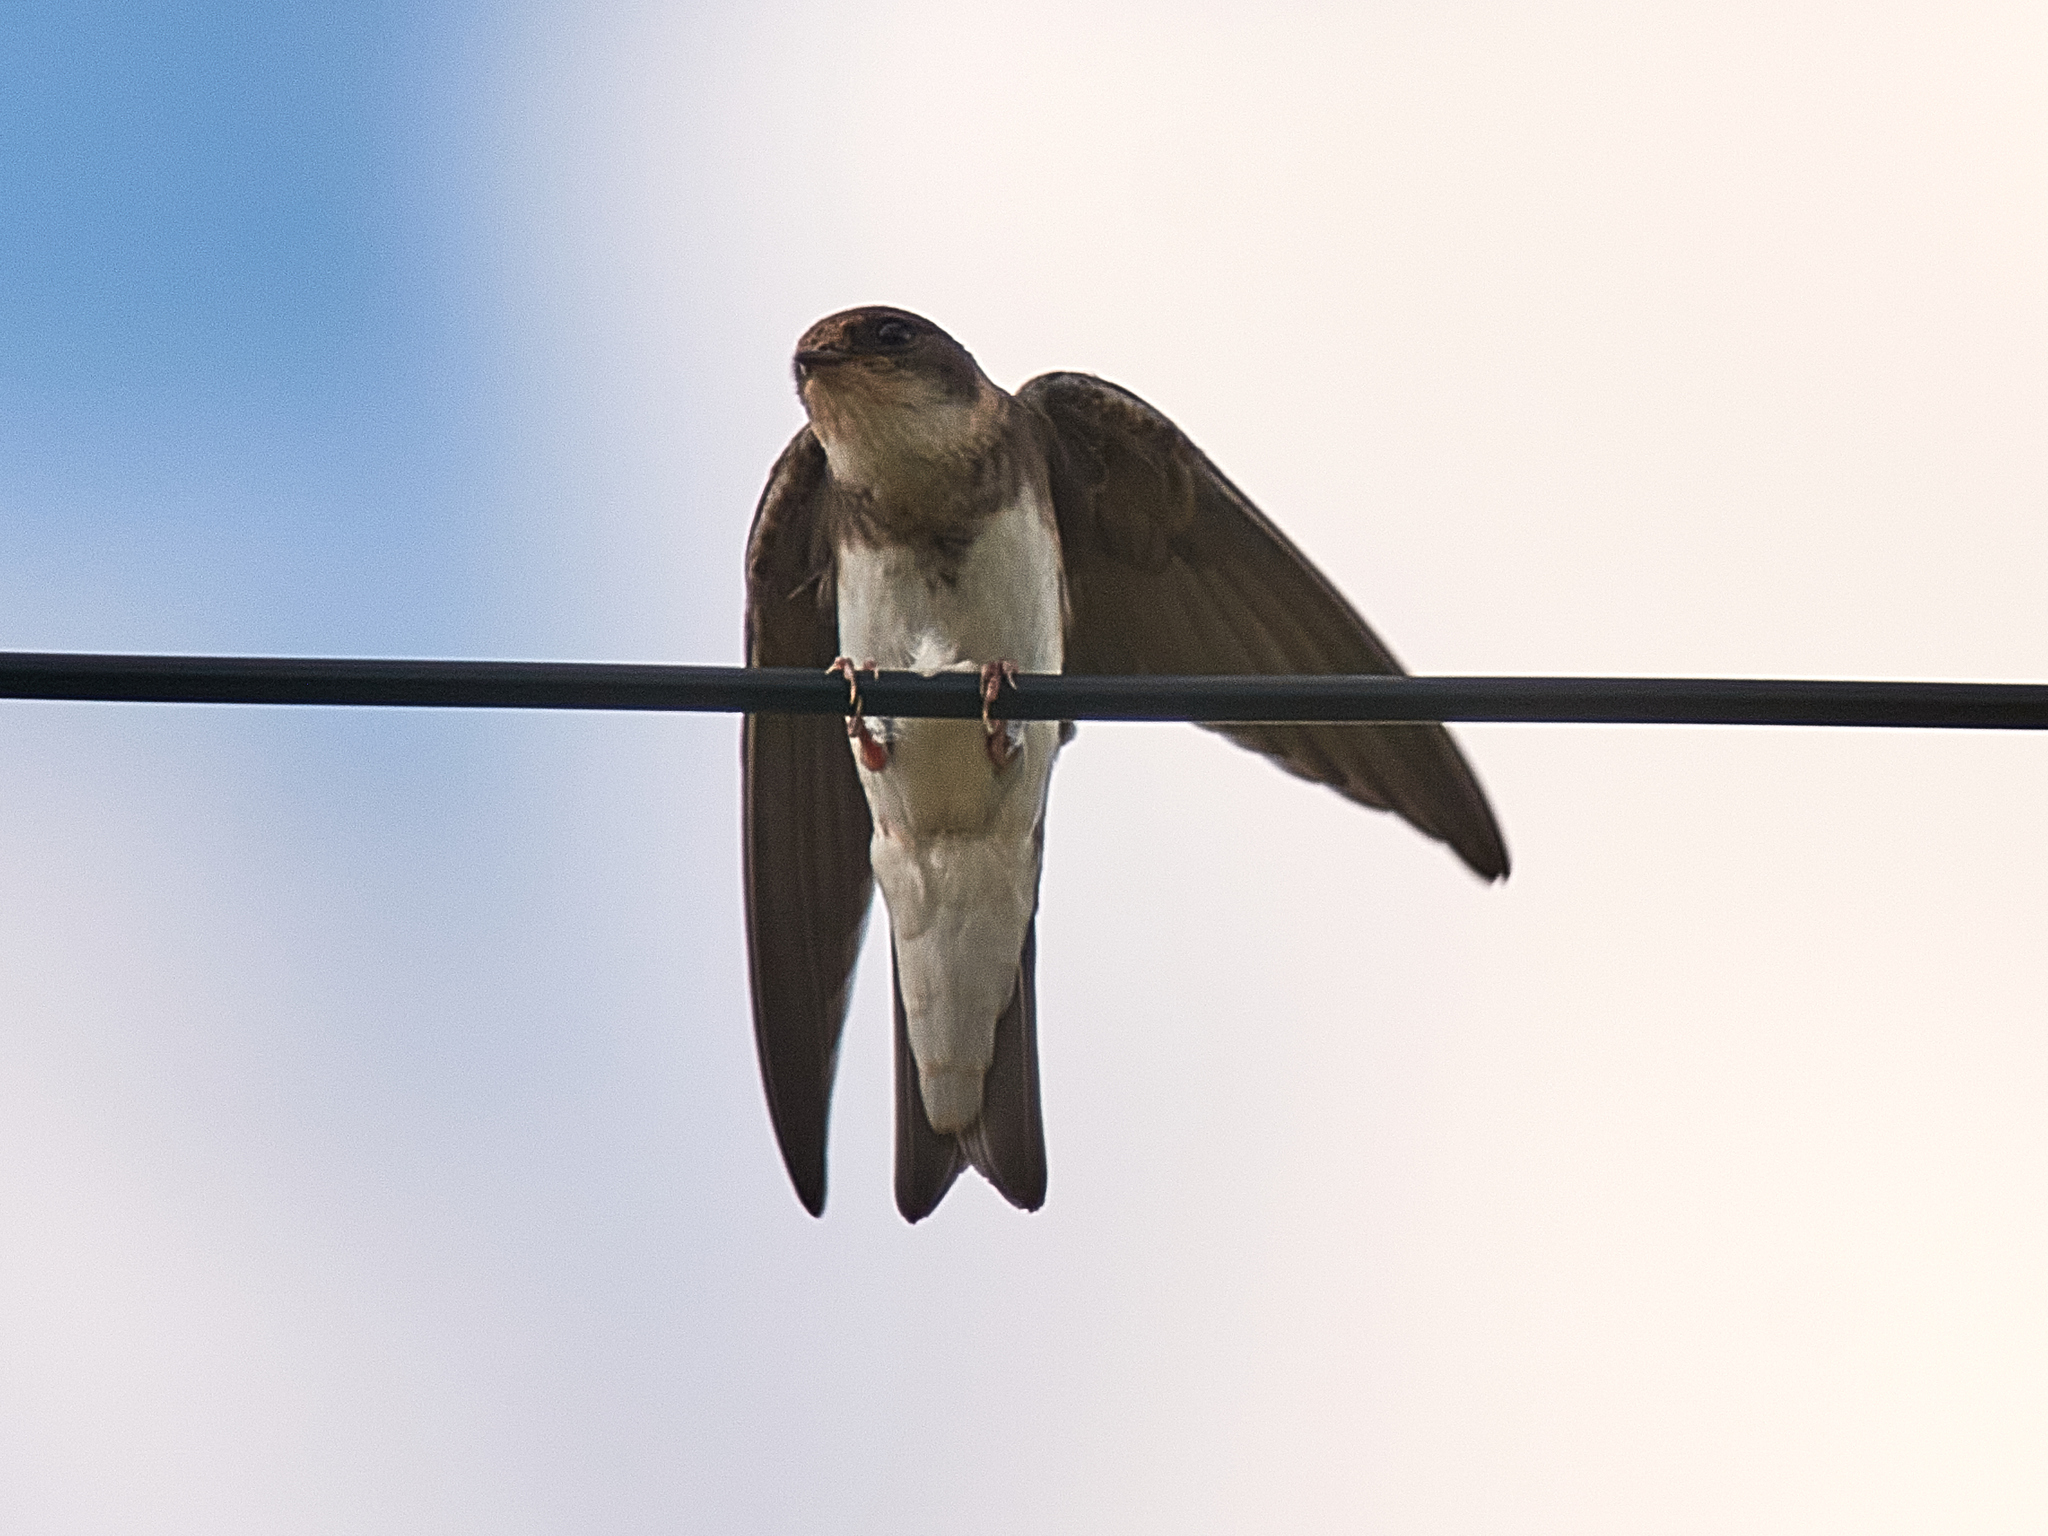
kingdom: Animalia
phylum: Chordata
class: Aves
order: Passeriformes
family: Hirundinidae
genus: Riparia
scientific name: Riparia riparia
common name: Sand martin
